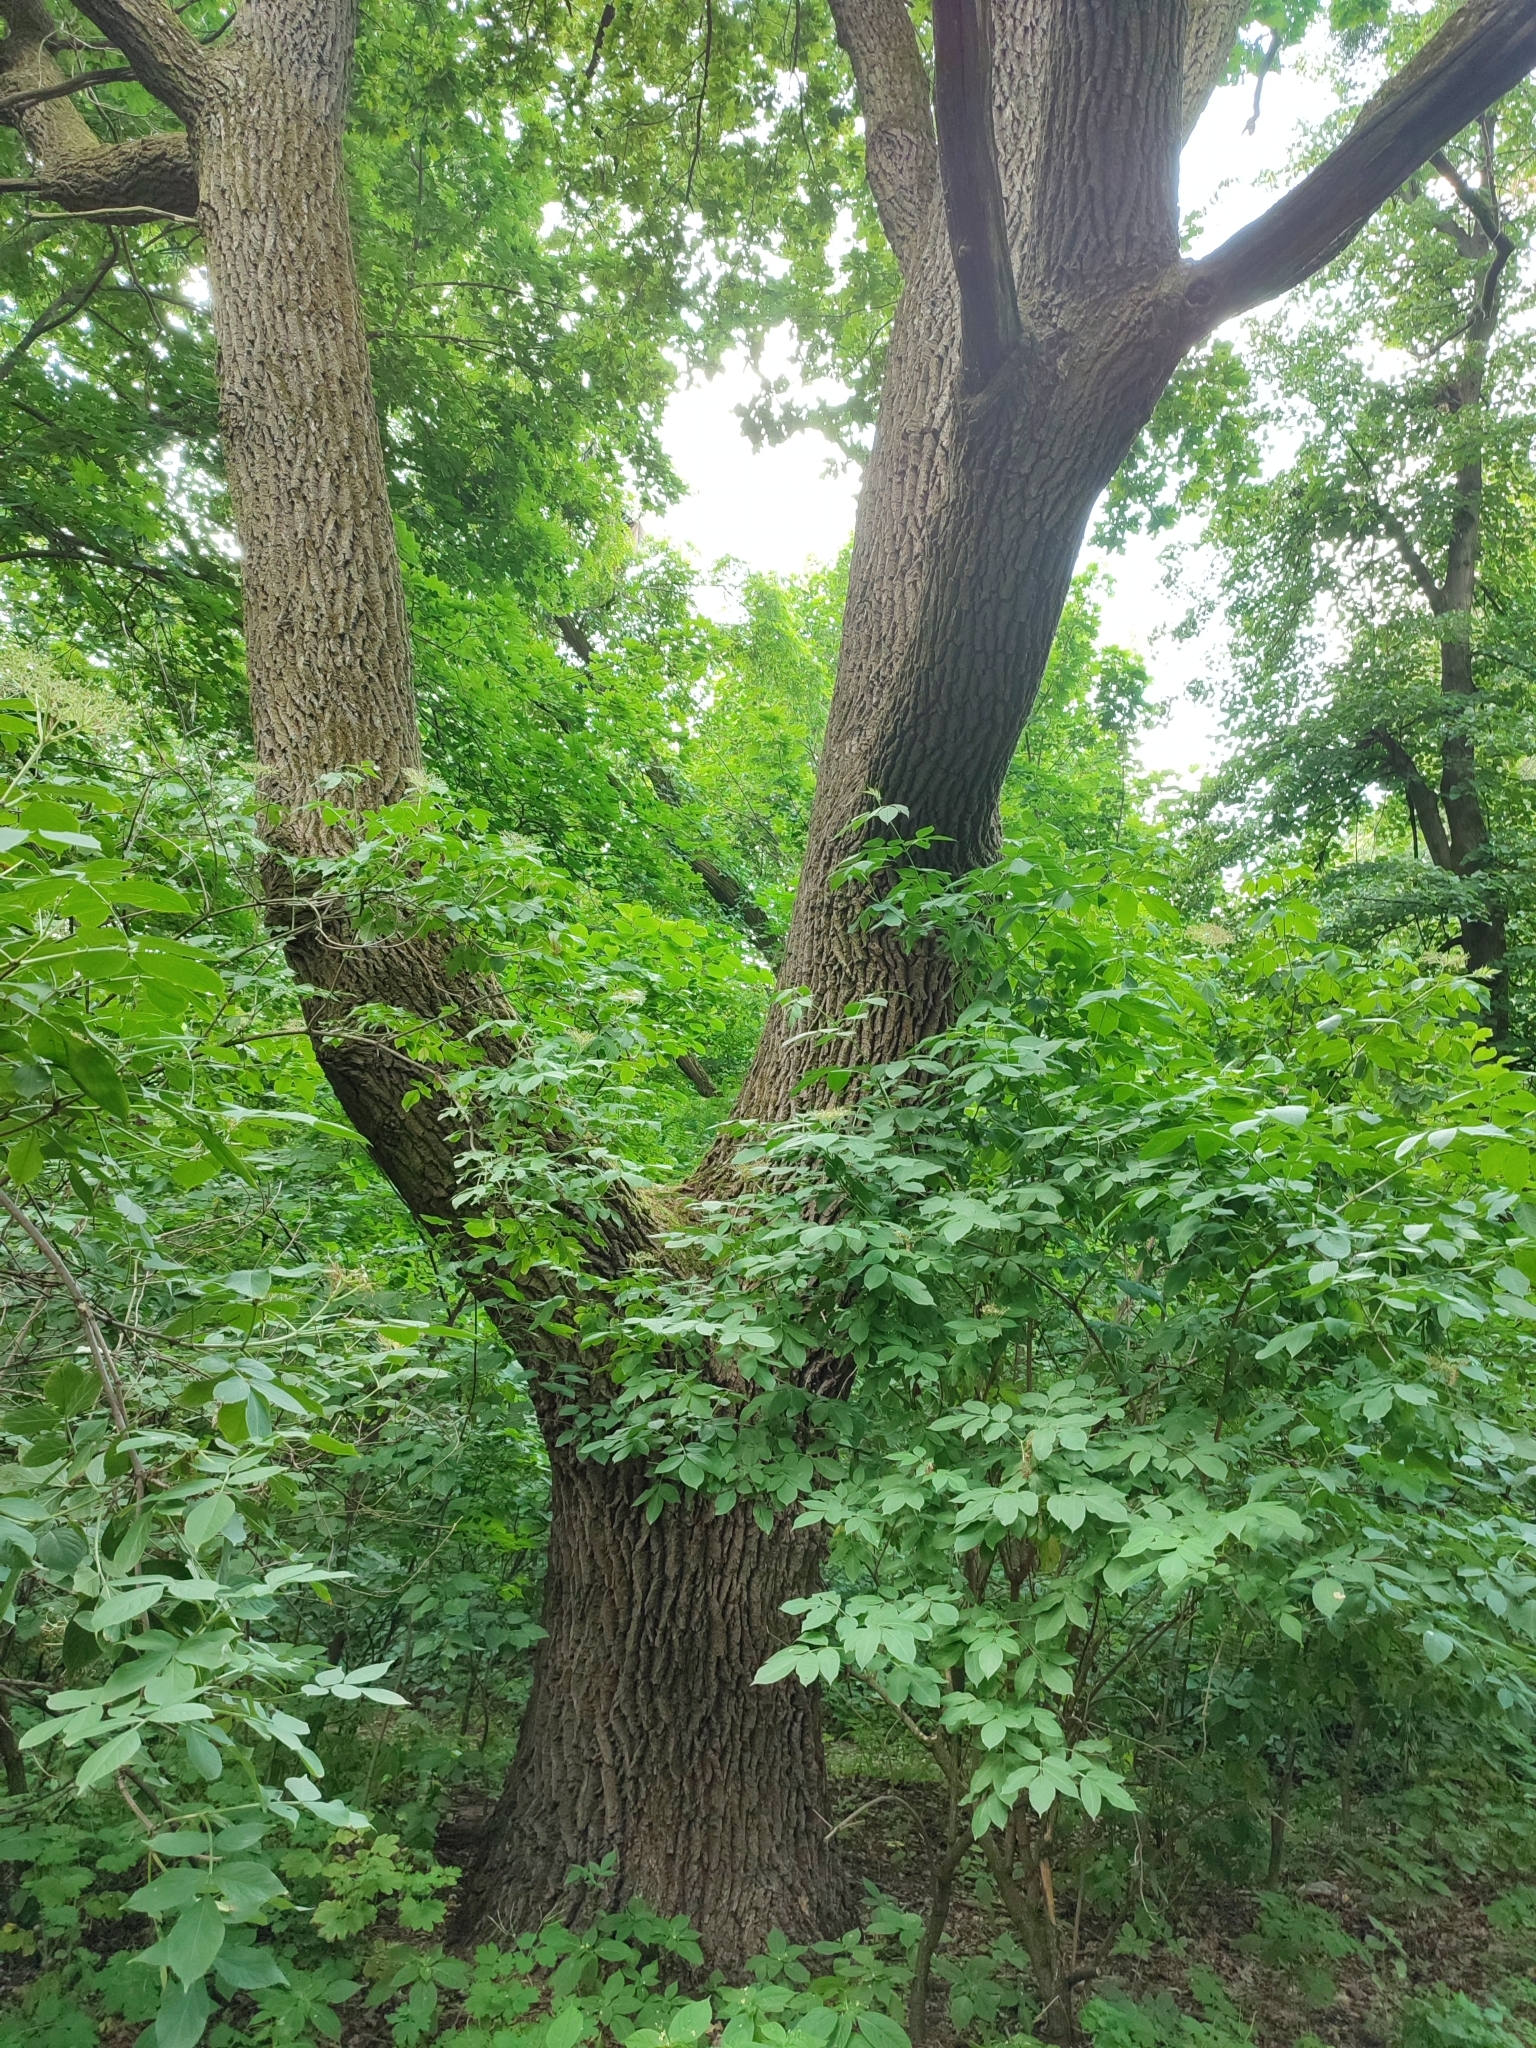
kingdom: Plantae
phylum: Tracheophyta
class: Magnoliopsida
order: Fagales
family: Fagaceae
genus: Quercus
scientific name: Quercus robur
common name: Pedunculate oak
